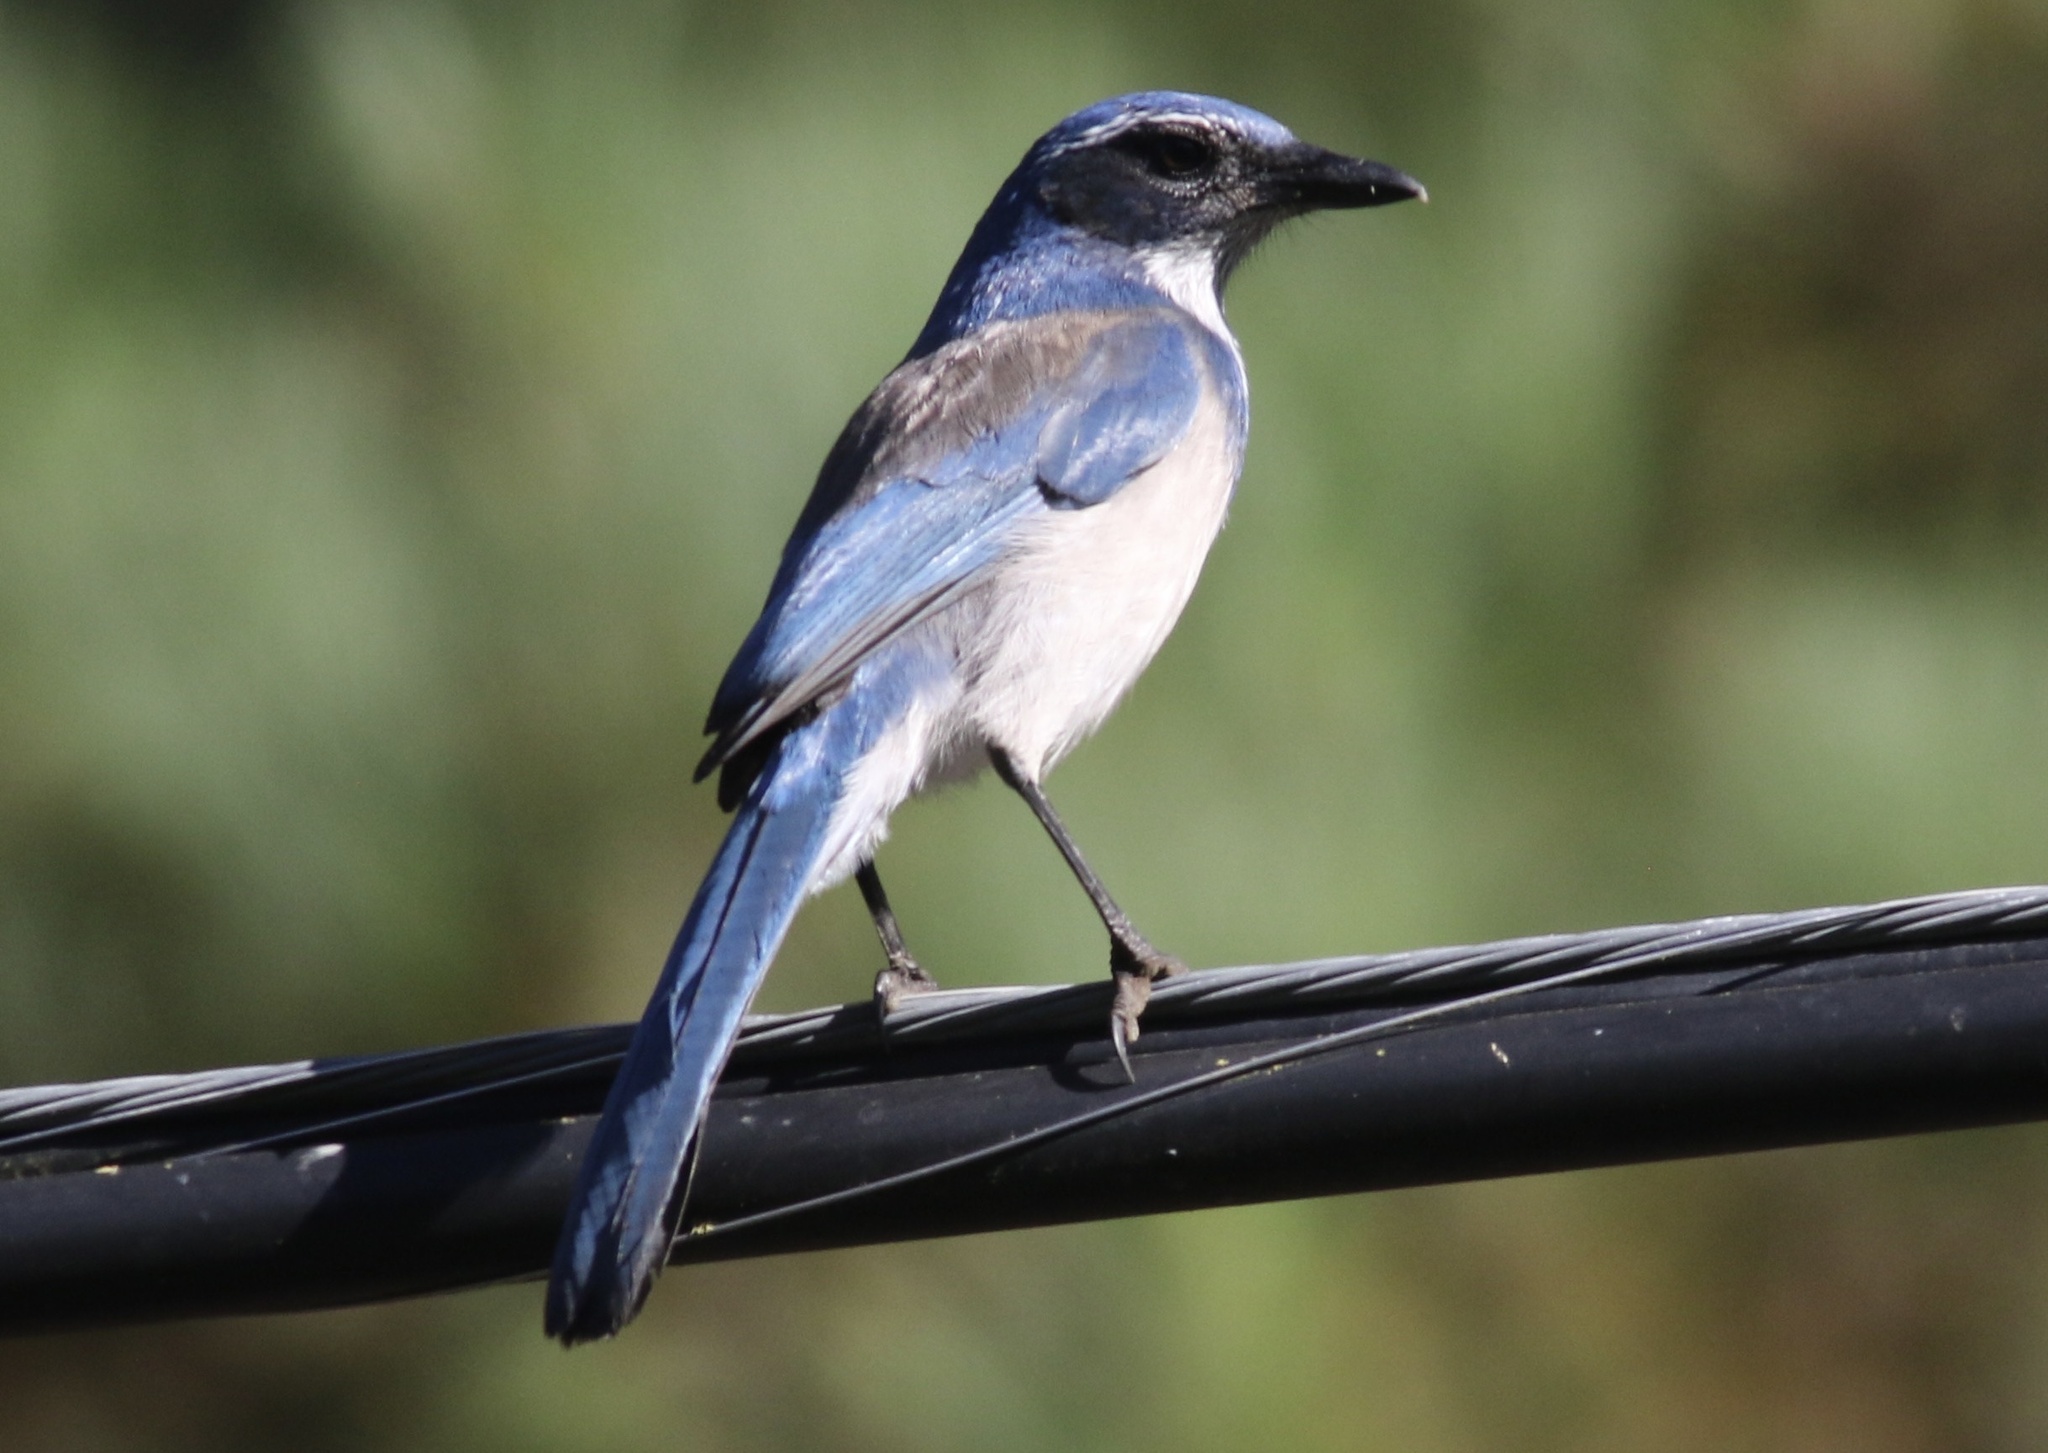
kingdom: Animalia
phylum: Chordata
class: Aves
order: Passeriformes
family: Corvidae
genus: Aphelocoma
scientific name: Aphelocoma californica
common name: California scrub-jay
